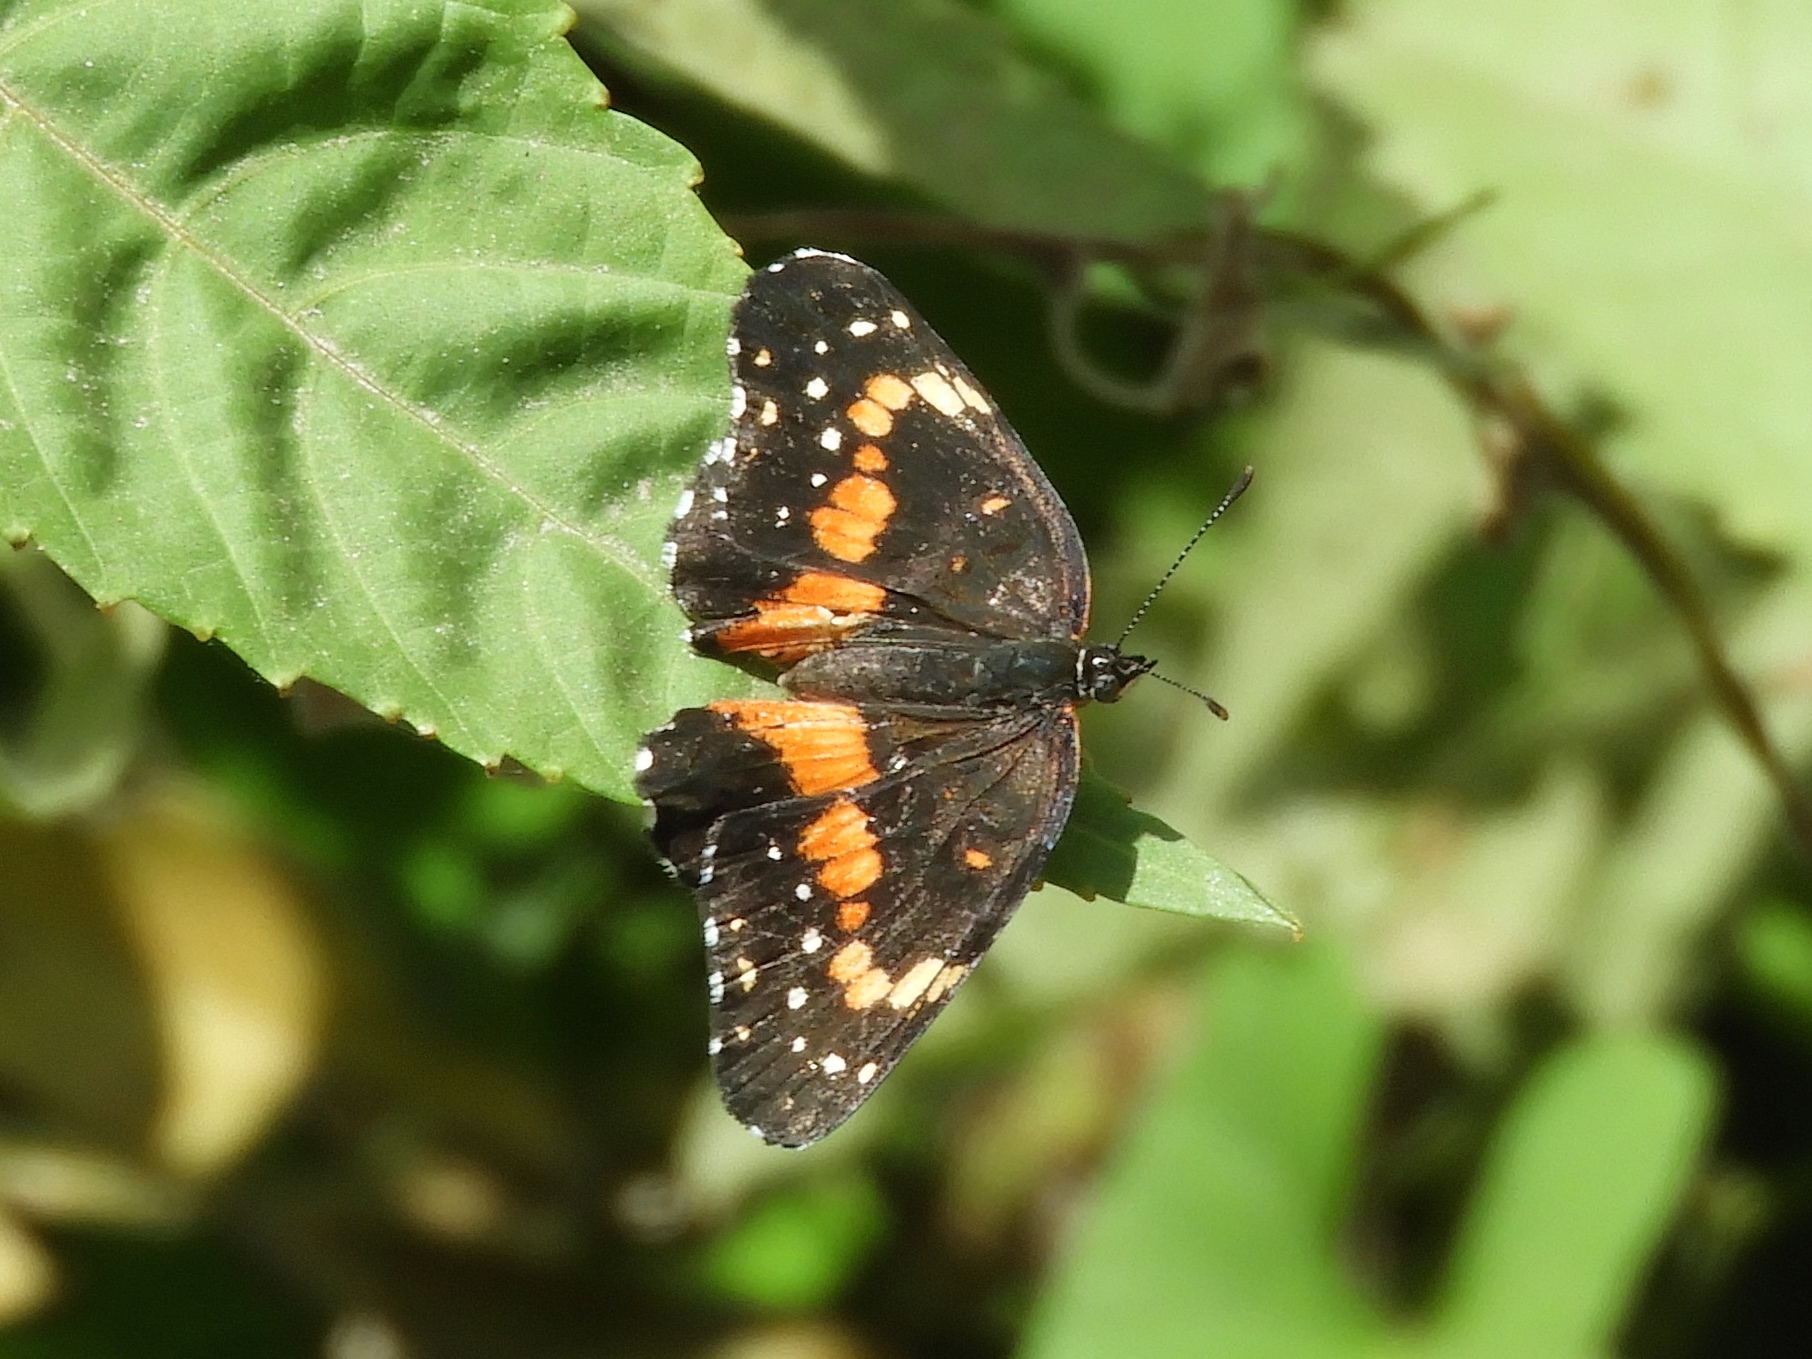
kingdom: Animalia
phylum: Arthropoda
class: Insecta
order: Lepidoptera
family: Nymphalidae
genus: Chlosyne
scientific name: Chlosyne lacinia
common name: Bordered patch
